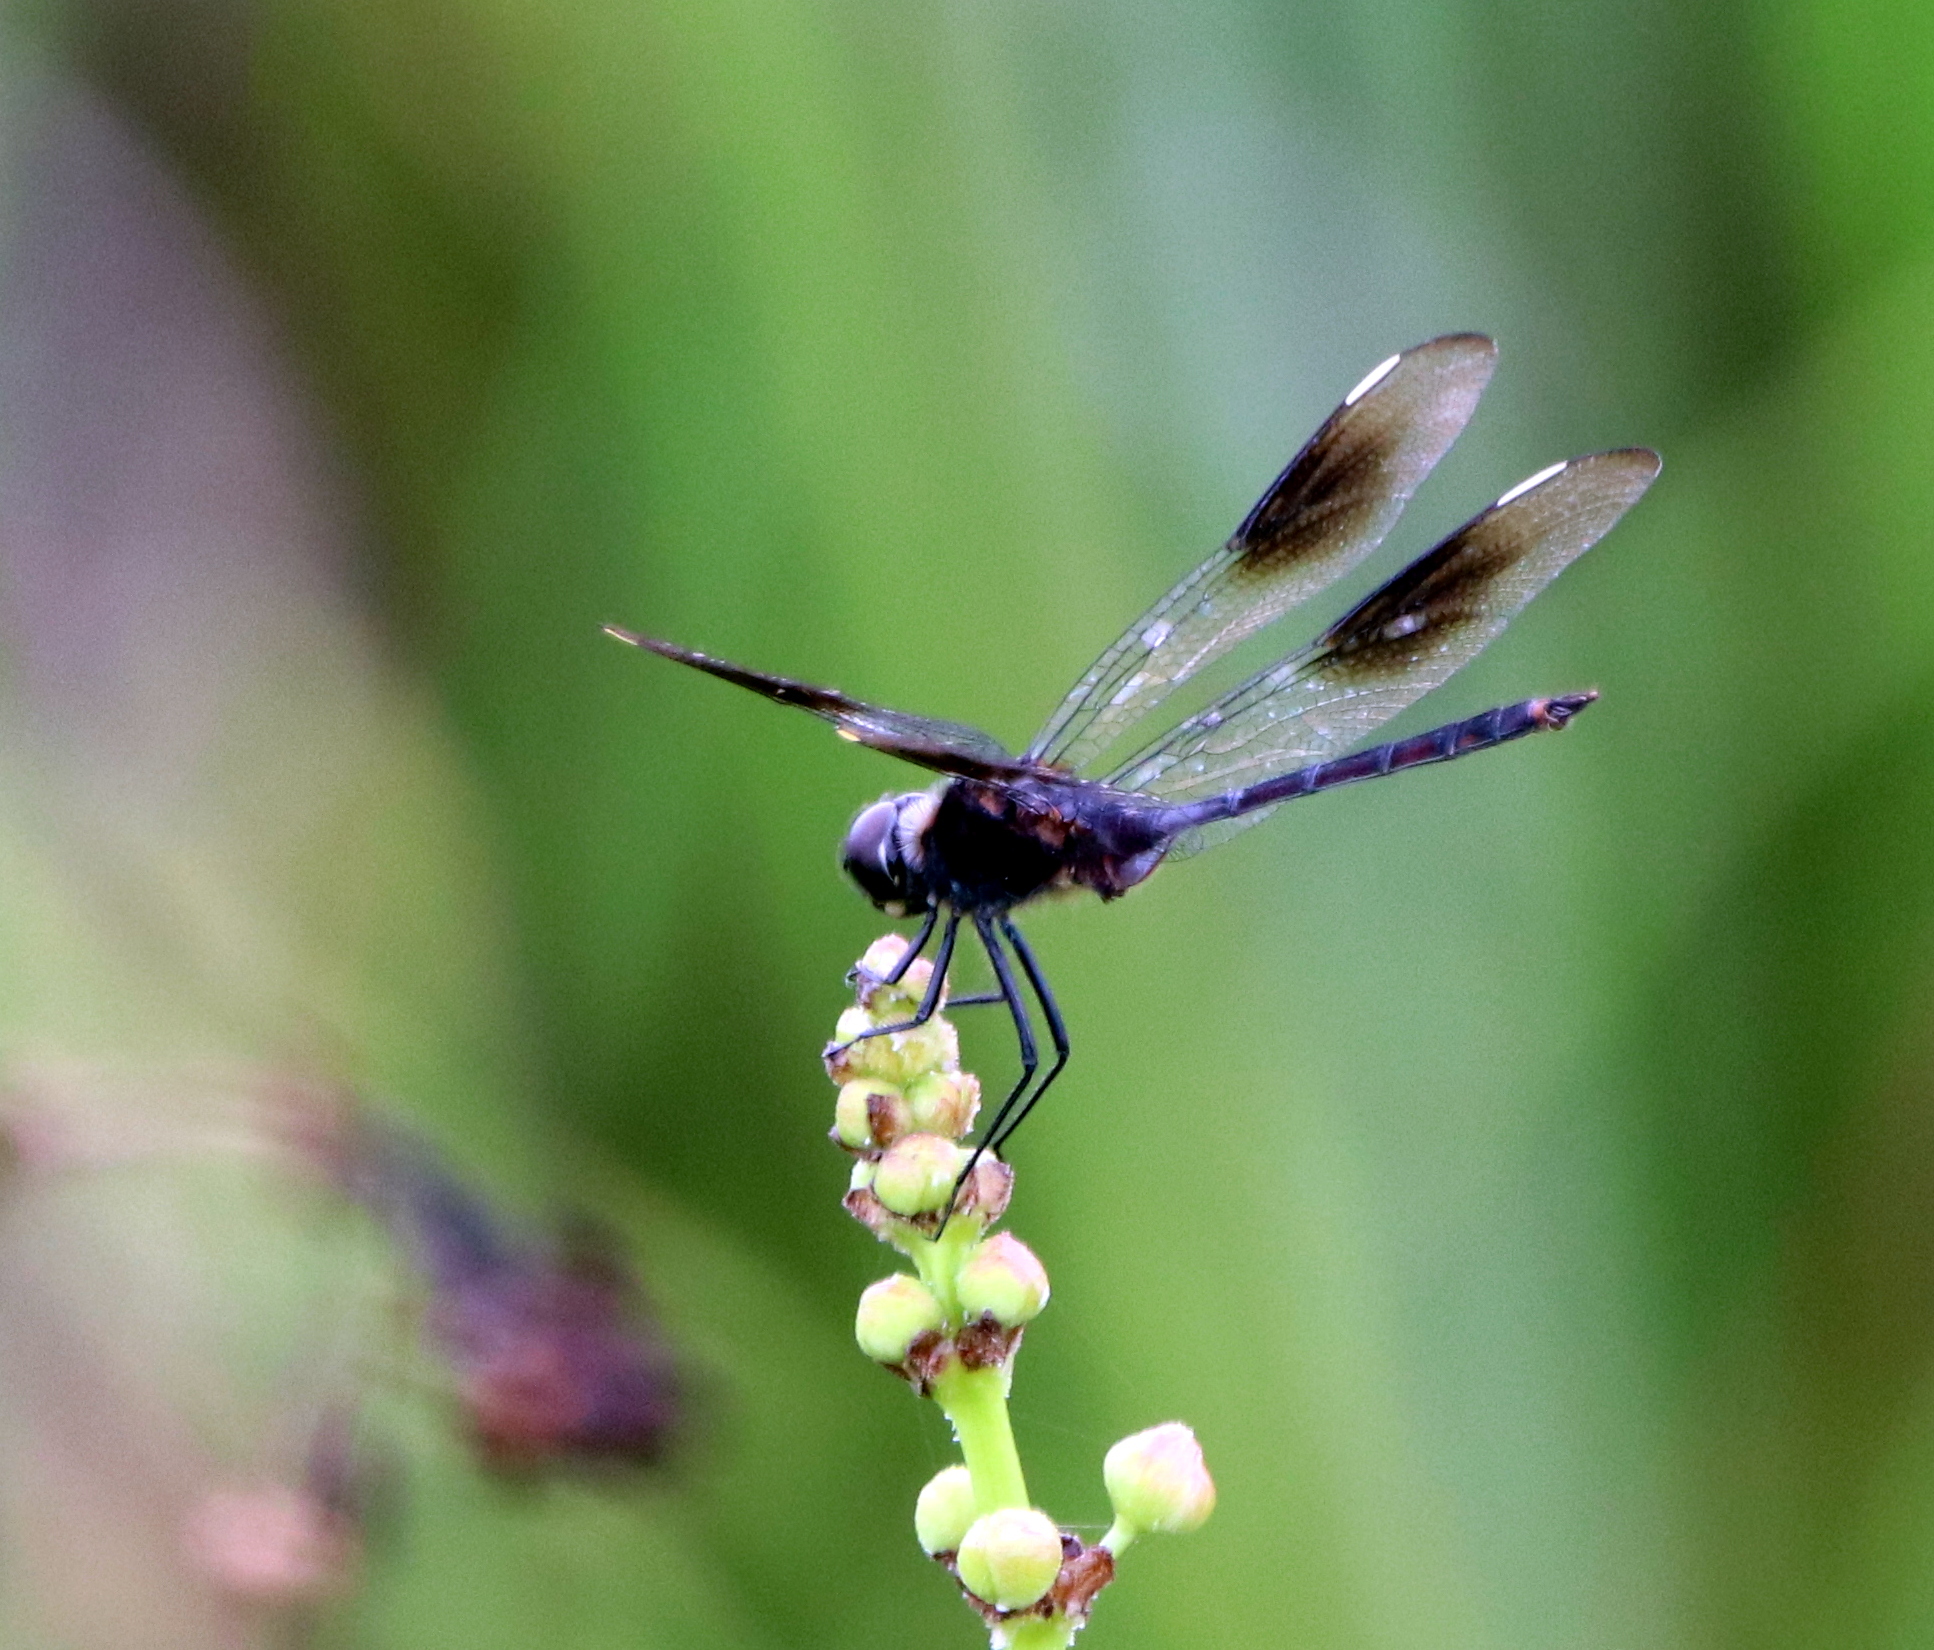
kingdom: Animalia
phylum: Arthropoda
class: Insecta
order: Odonata
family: Libellulidae
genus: Brachymesia
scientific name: Brachymesia gravida
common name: Four-spotted pennant
